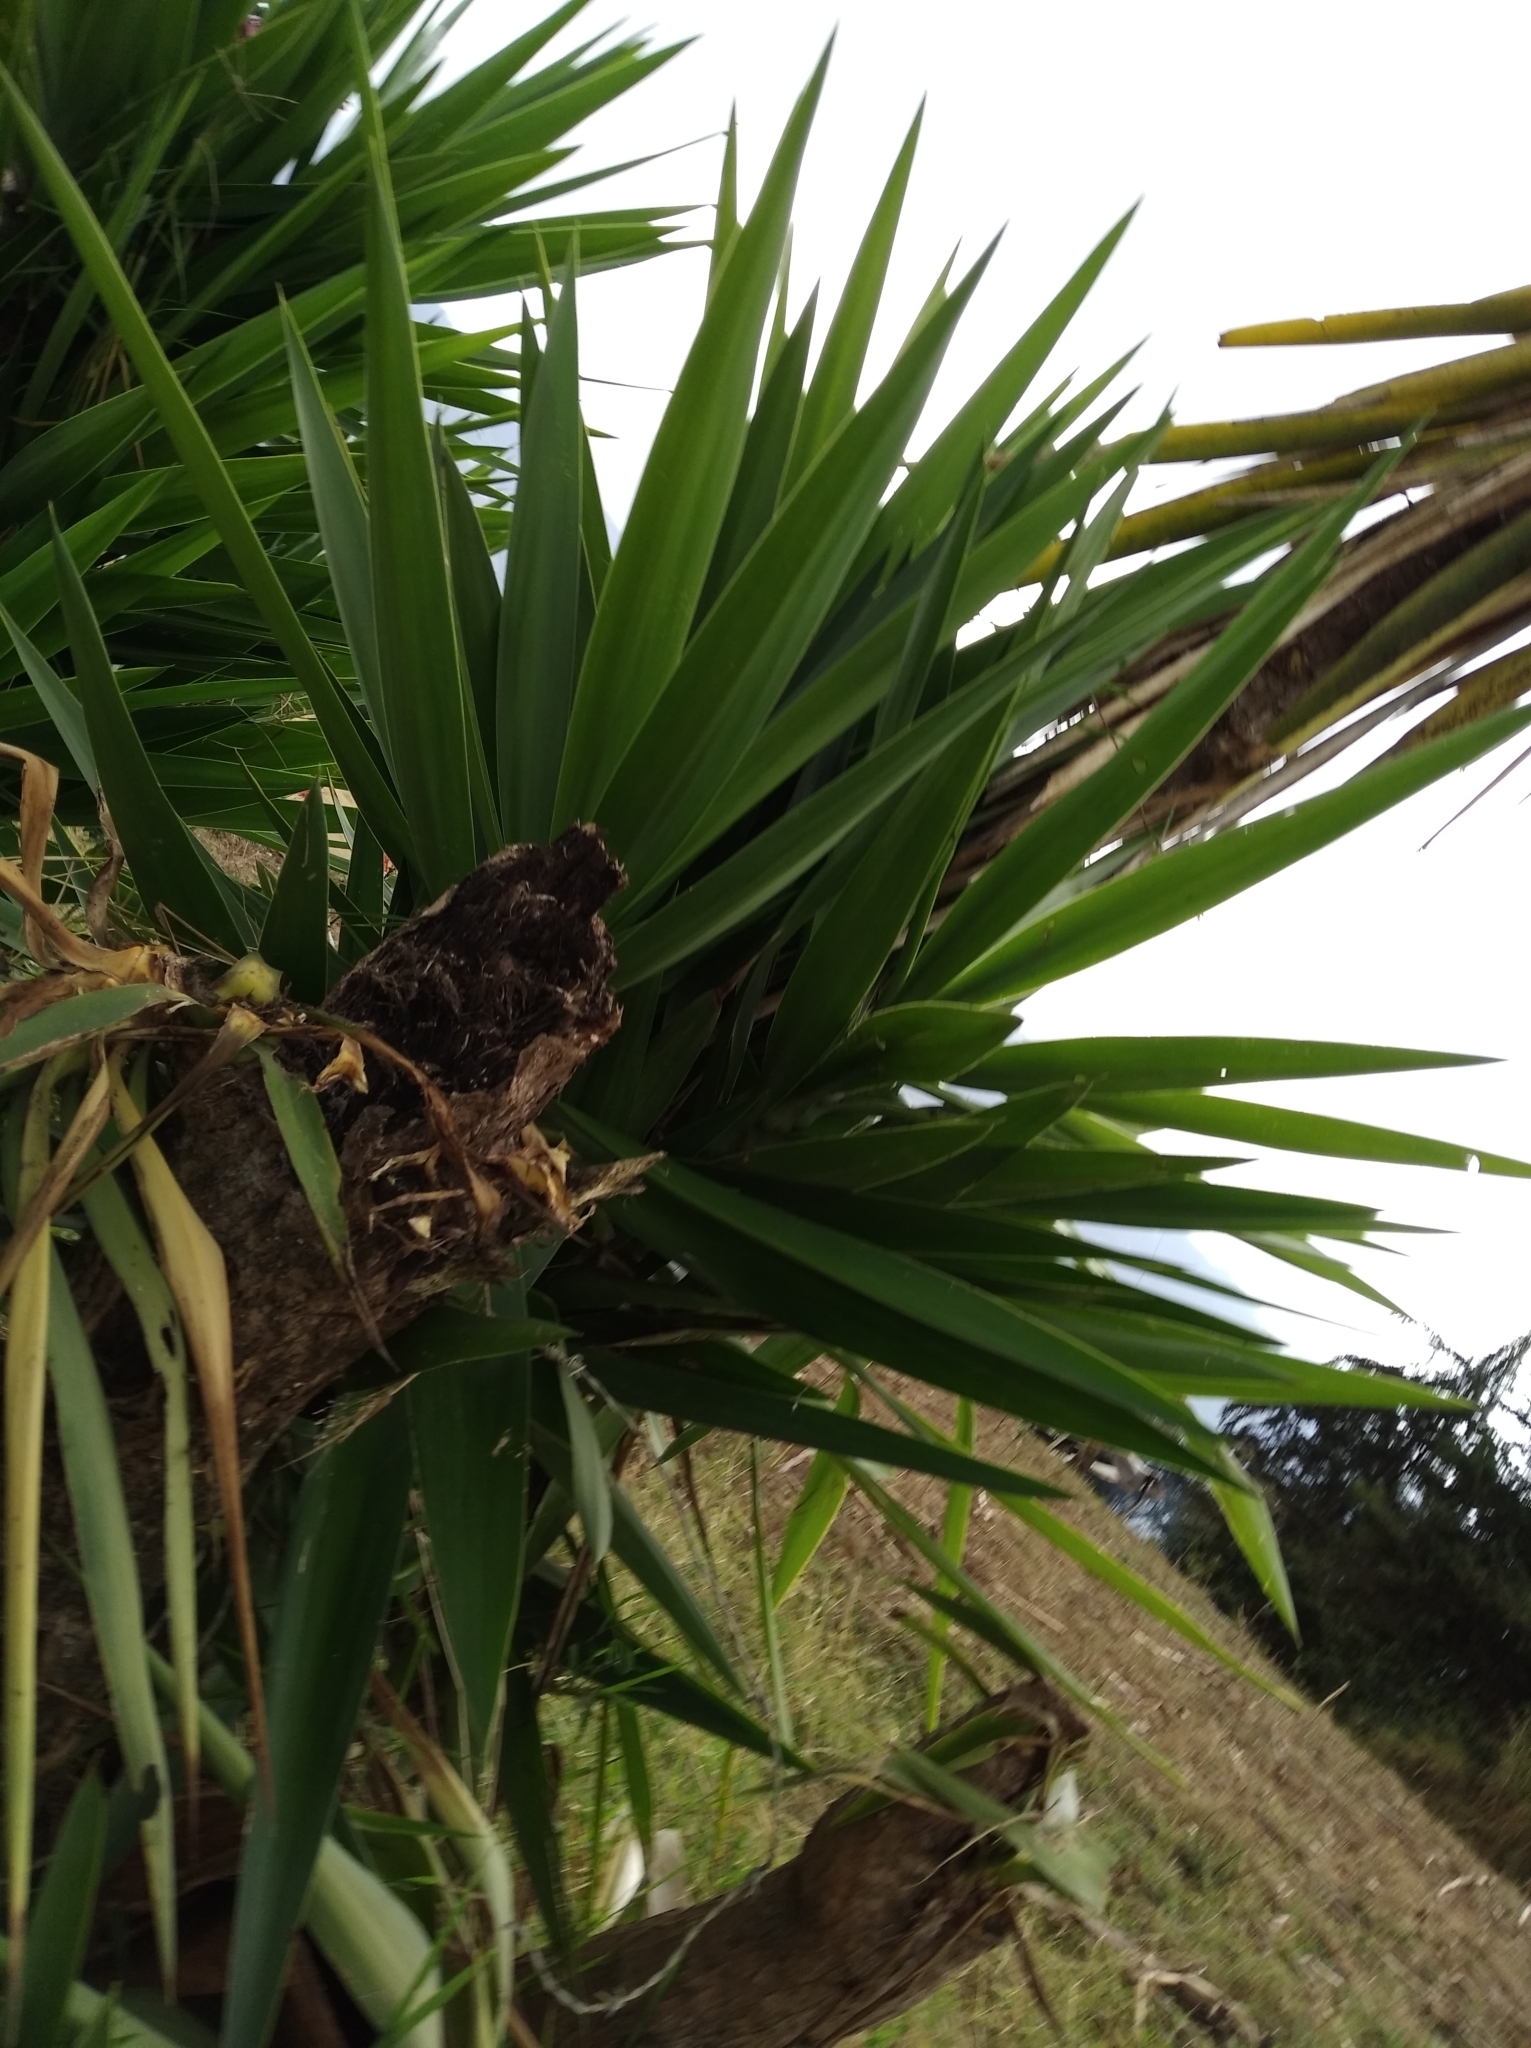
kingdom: Plantae
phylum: Tracheophyta
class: Liliopsida
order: Asparagales
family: Asparagaceae
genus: Yucca
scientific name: Yucca gigantea
